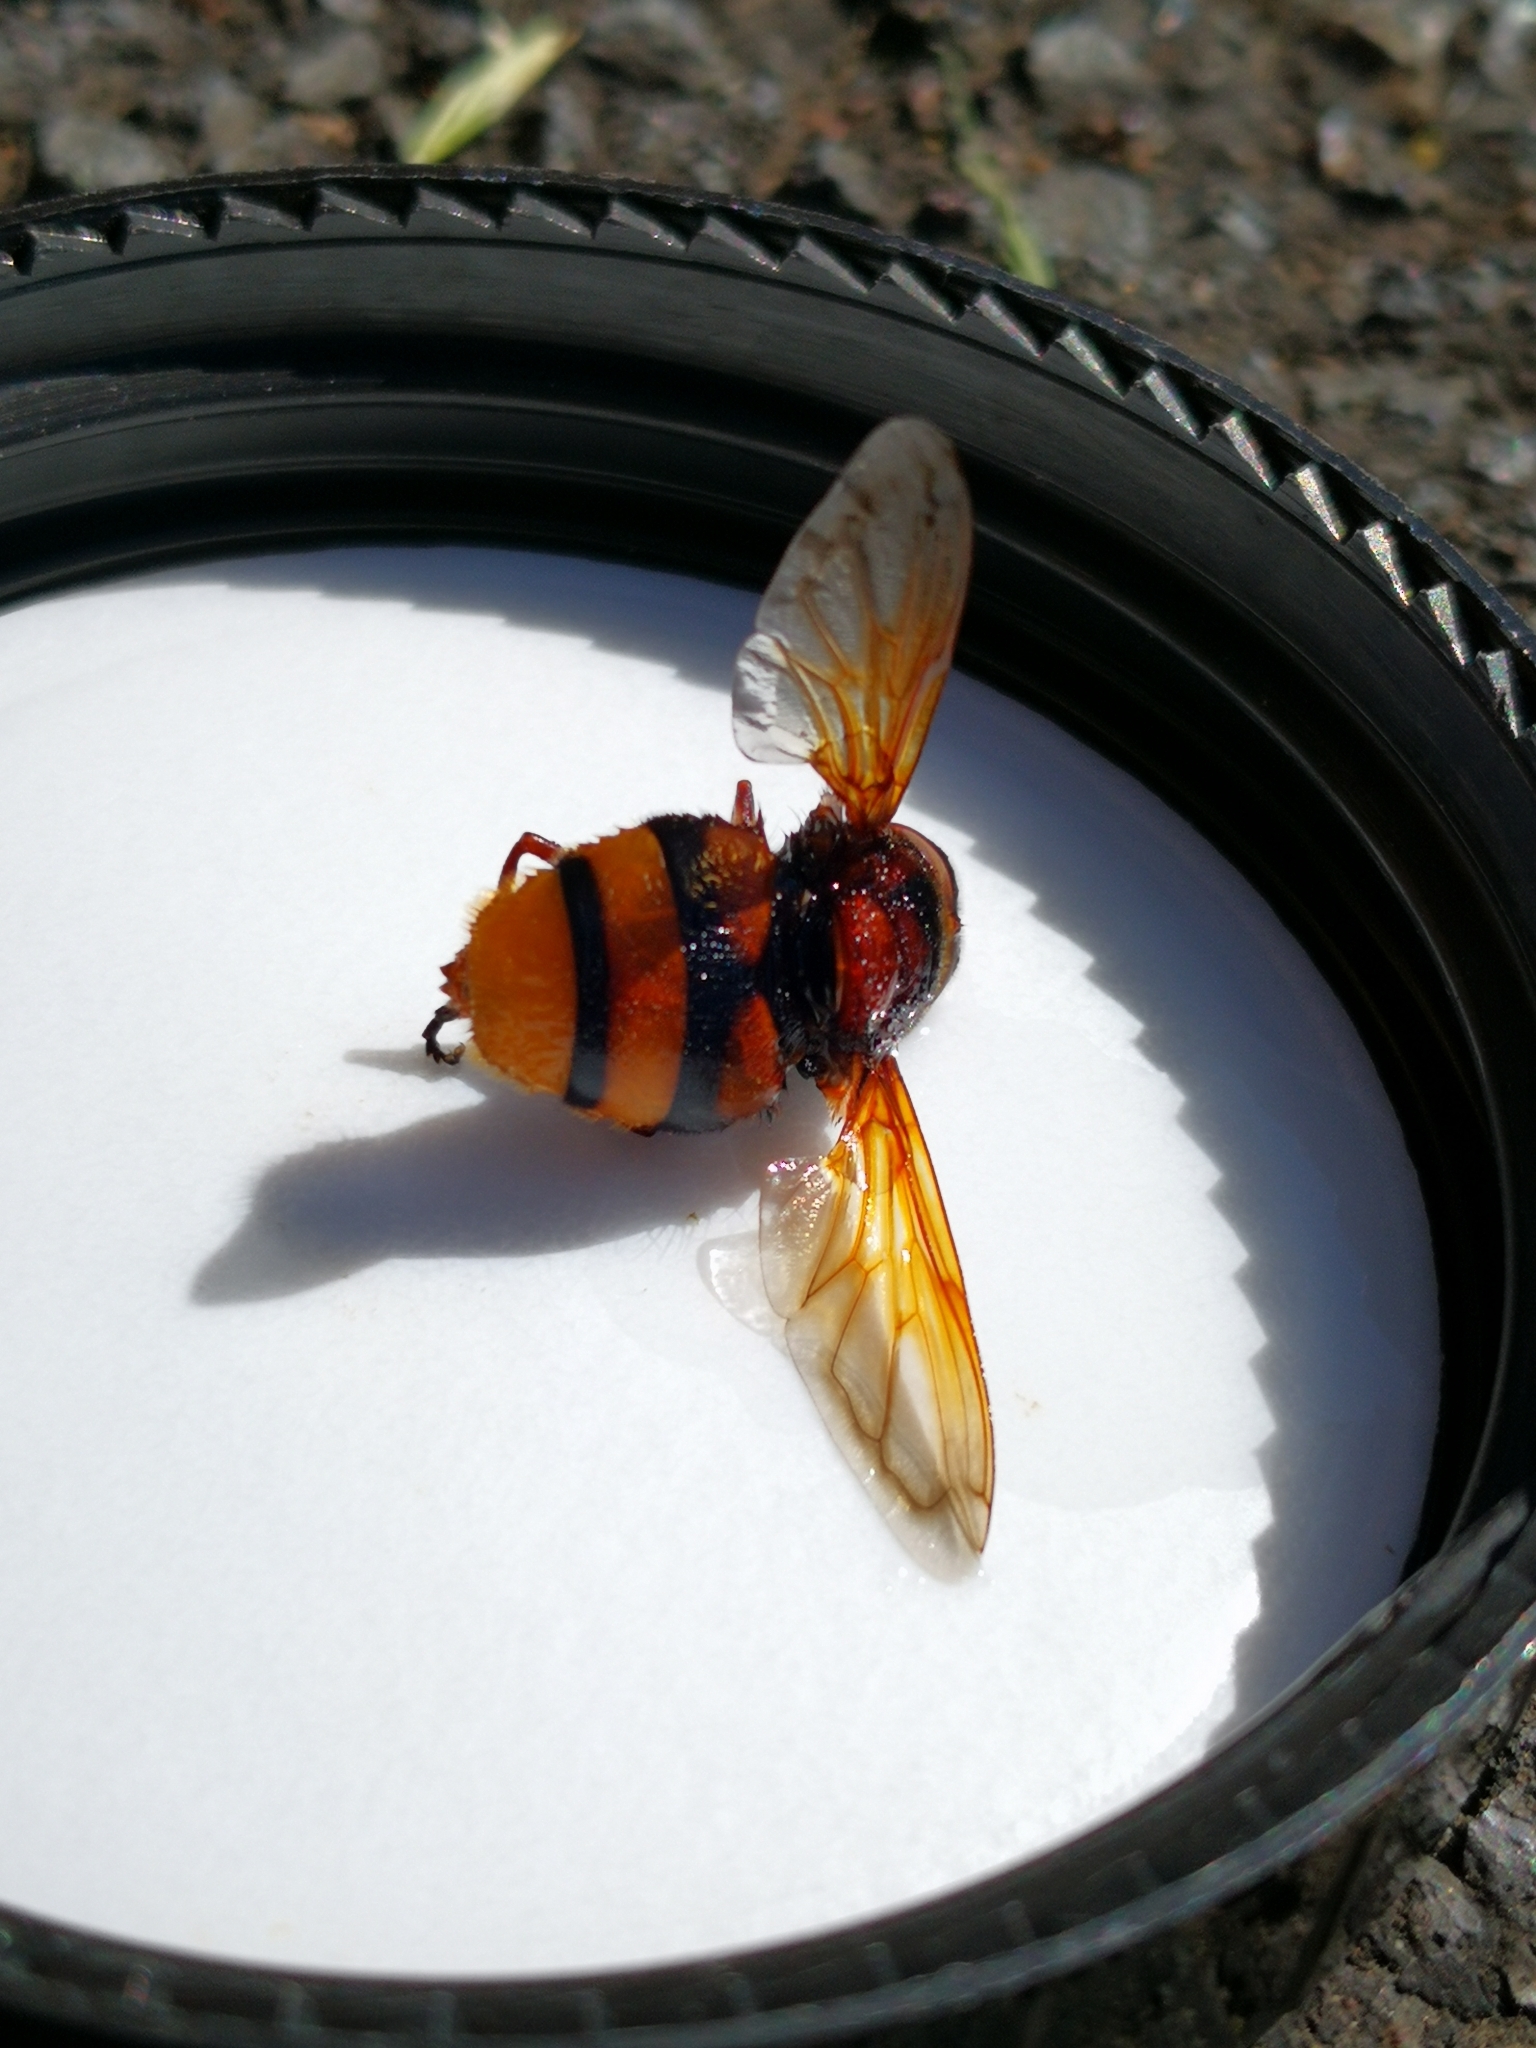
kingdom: Animalia
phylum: Arthropoda
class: Insecta
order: Diptera
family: Syrphidae
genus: Volucella
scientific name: Volucella zonaria
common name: Hornet hoverfly
